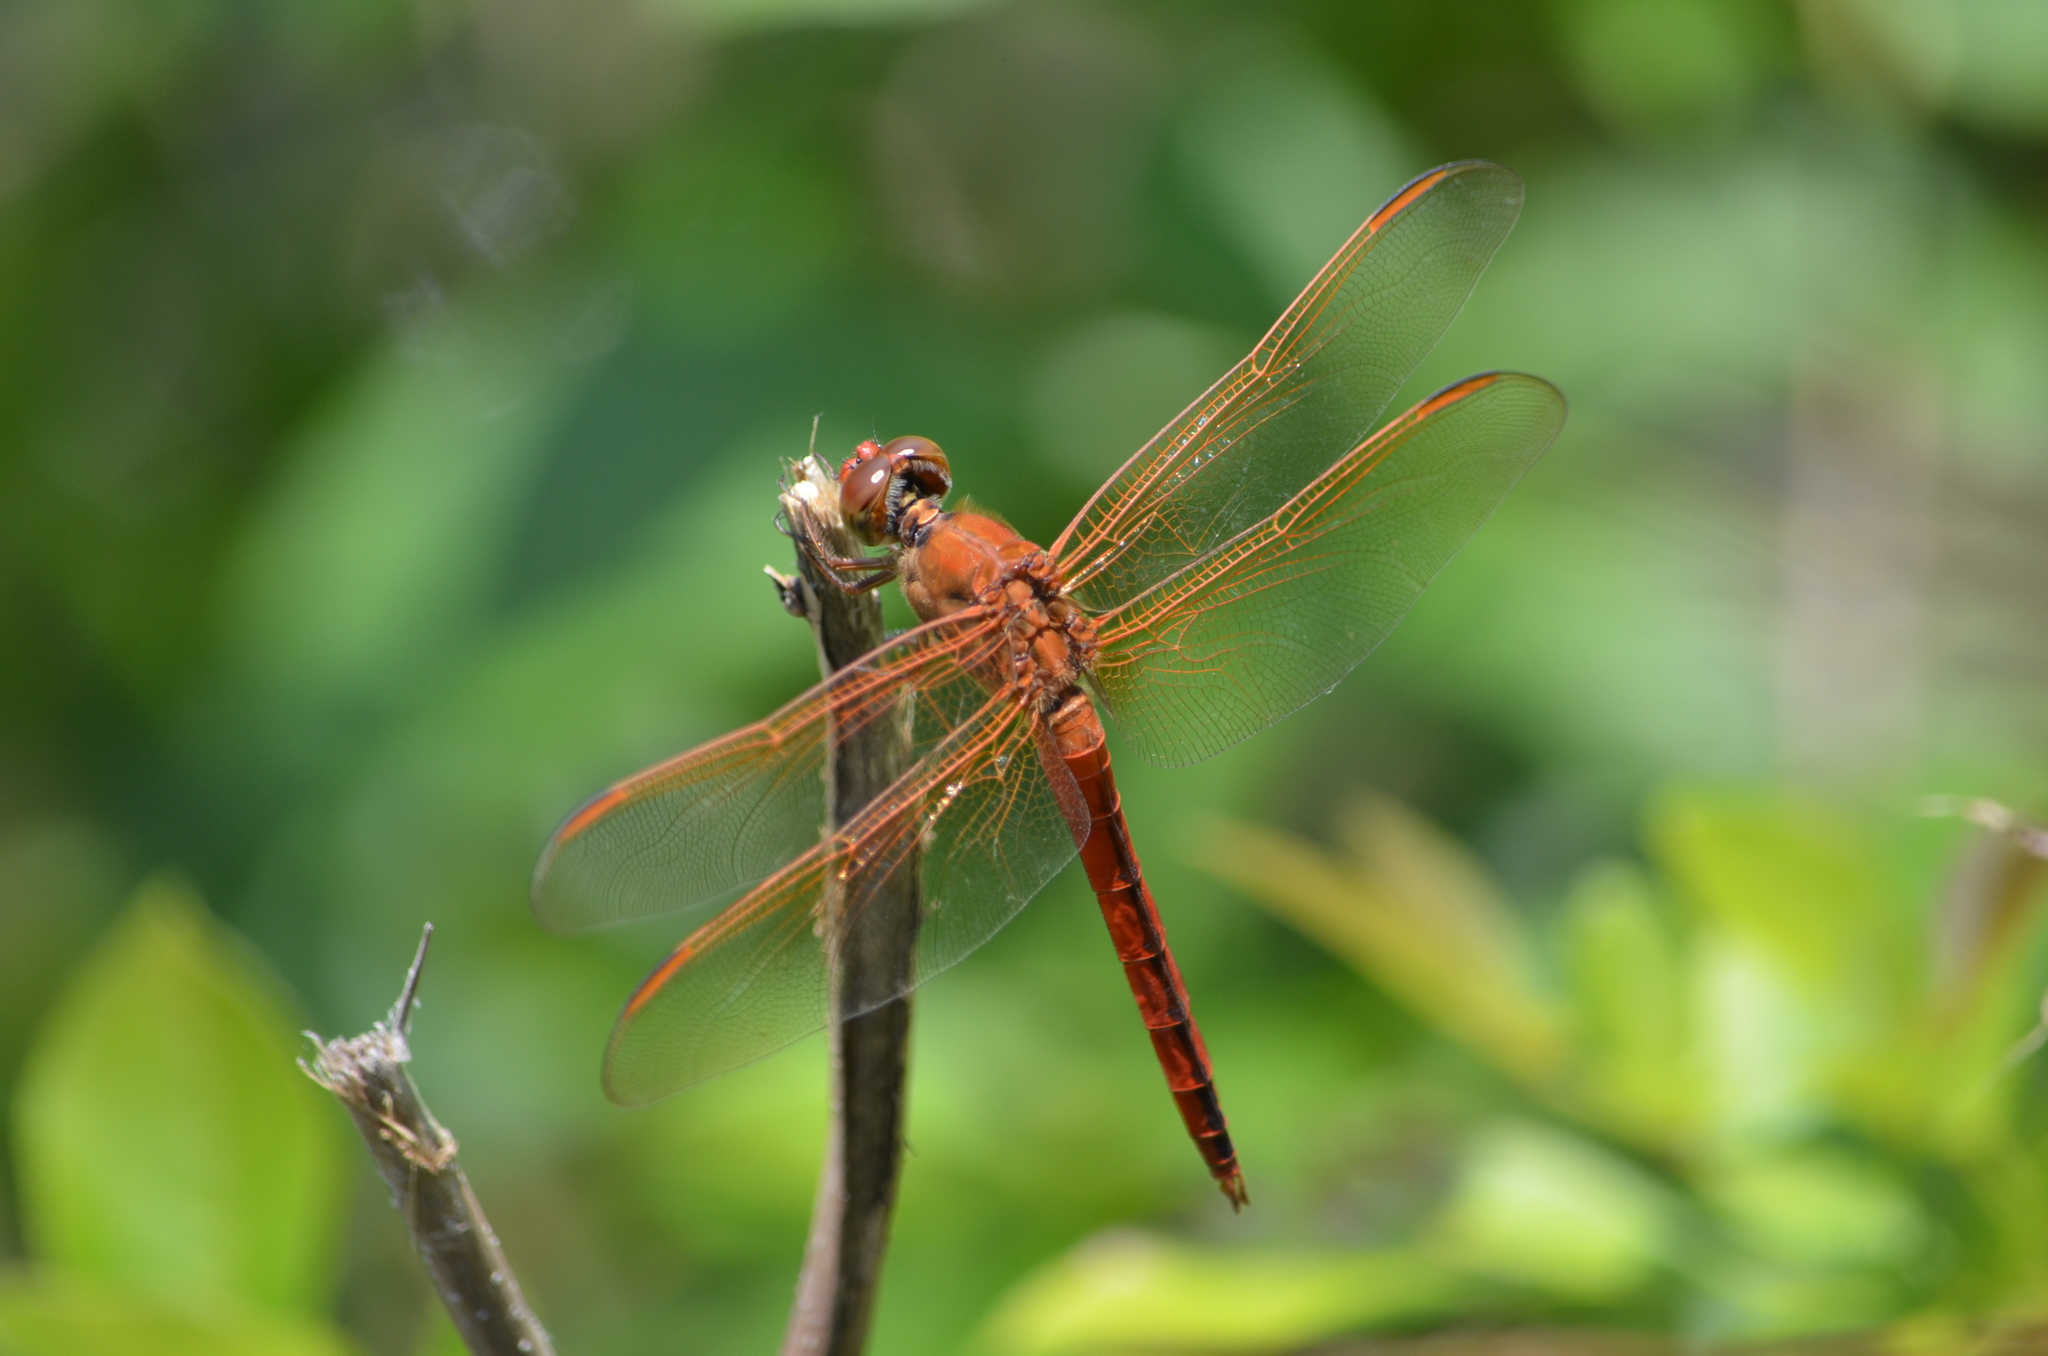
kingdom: Animalia
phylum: Arthropoda
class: Insecta
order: Odonata
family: Libellulidae
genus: Libellula
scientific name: Libellula needhami
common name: Needham's skimmer
